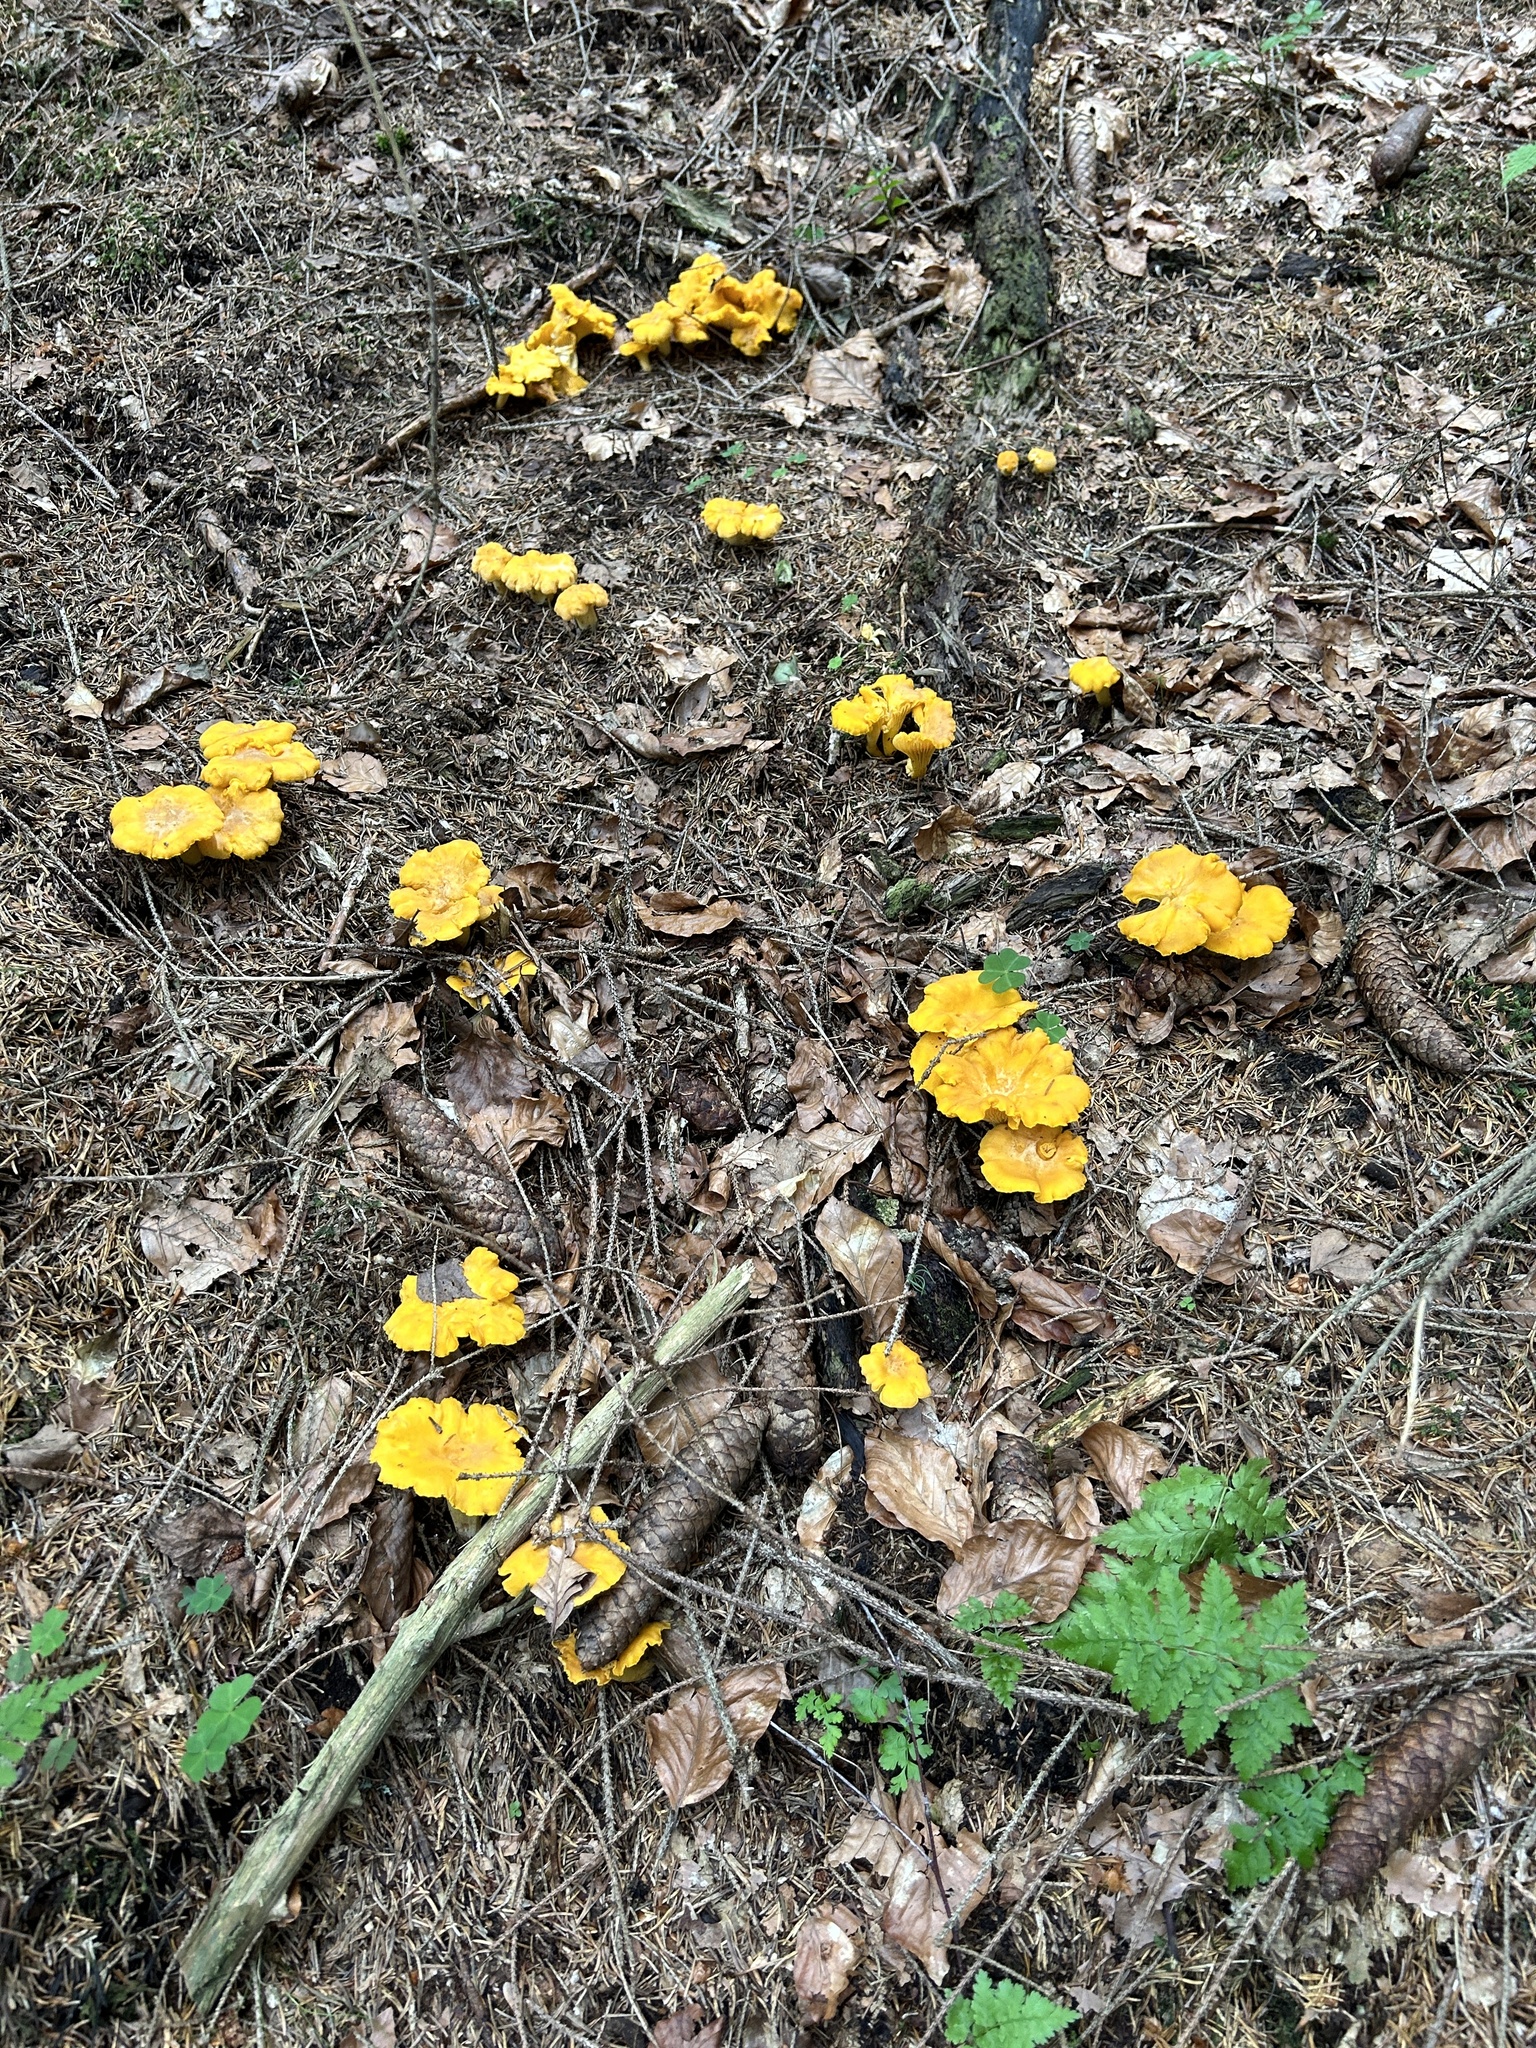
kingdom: Fungi
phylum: Basidiomycota
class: Agaricomycetes
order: Cantharellales
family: Hydnaceae
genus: Cantharellus
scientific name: Cantharellus cibarius
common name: Chanterelle
